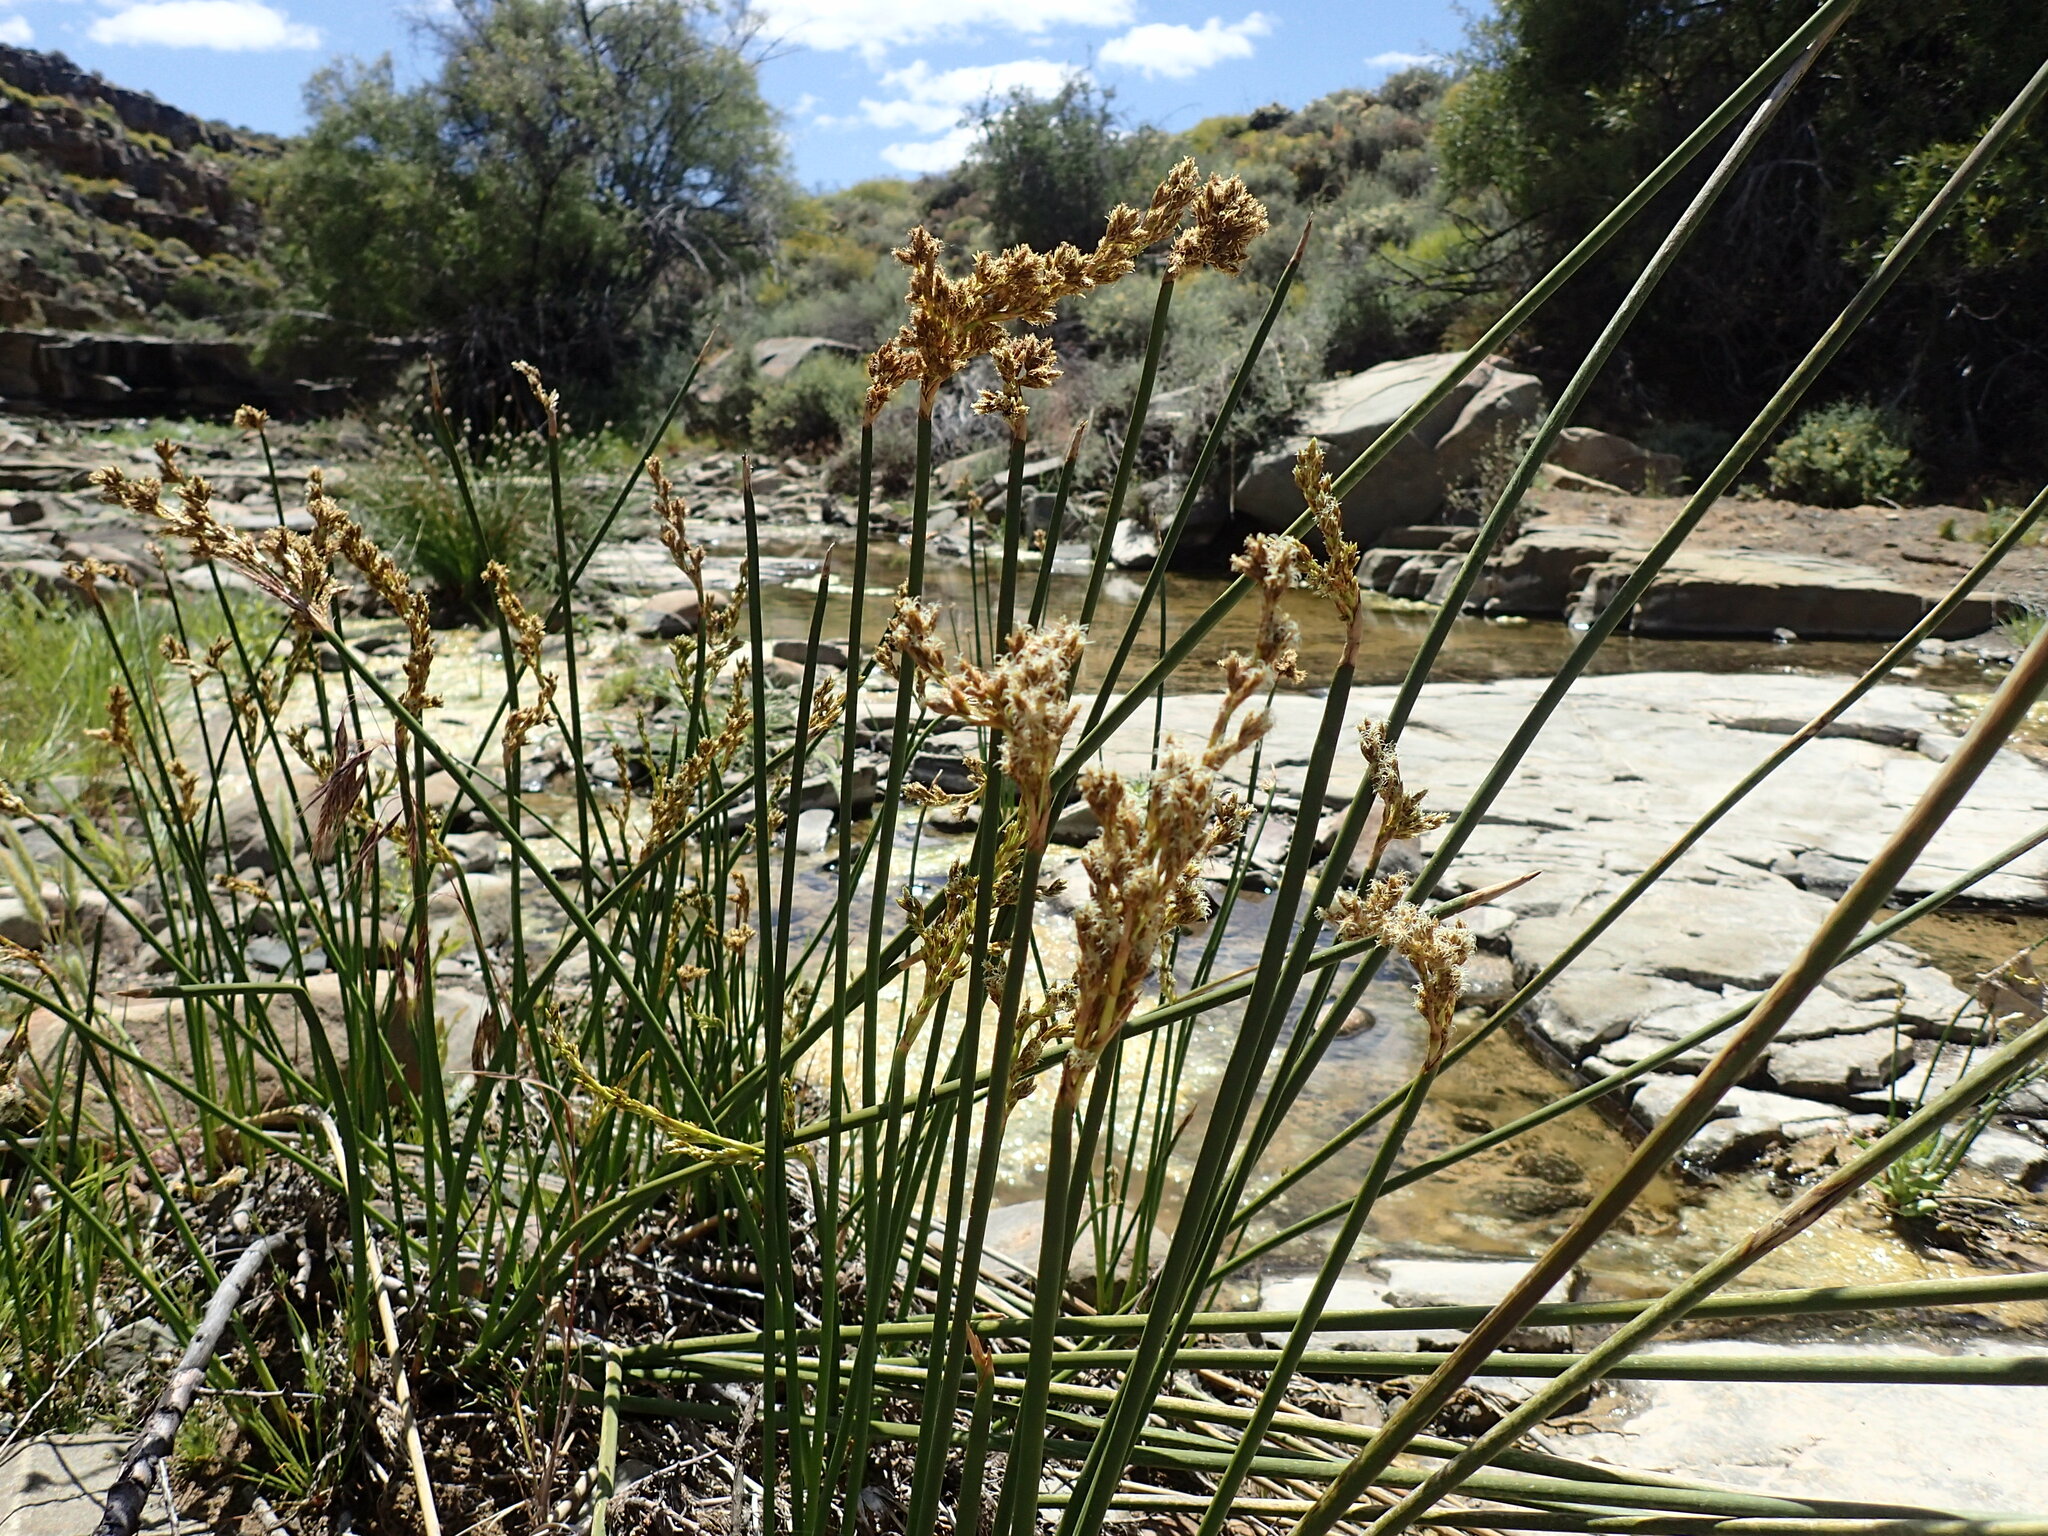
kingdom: Plantae
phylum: Tracheophyta
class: Liliopsida
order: Poales
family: Cyperaceae
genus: Pseudoschoenus
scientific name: Pseudoschoenus inanis
